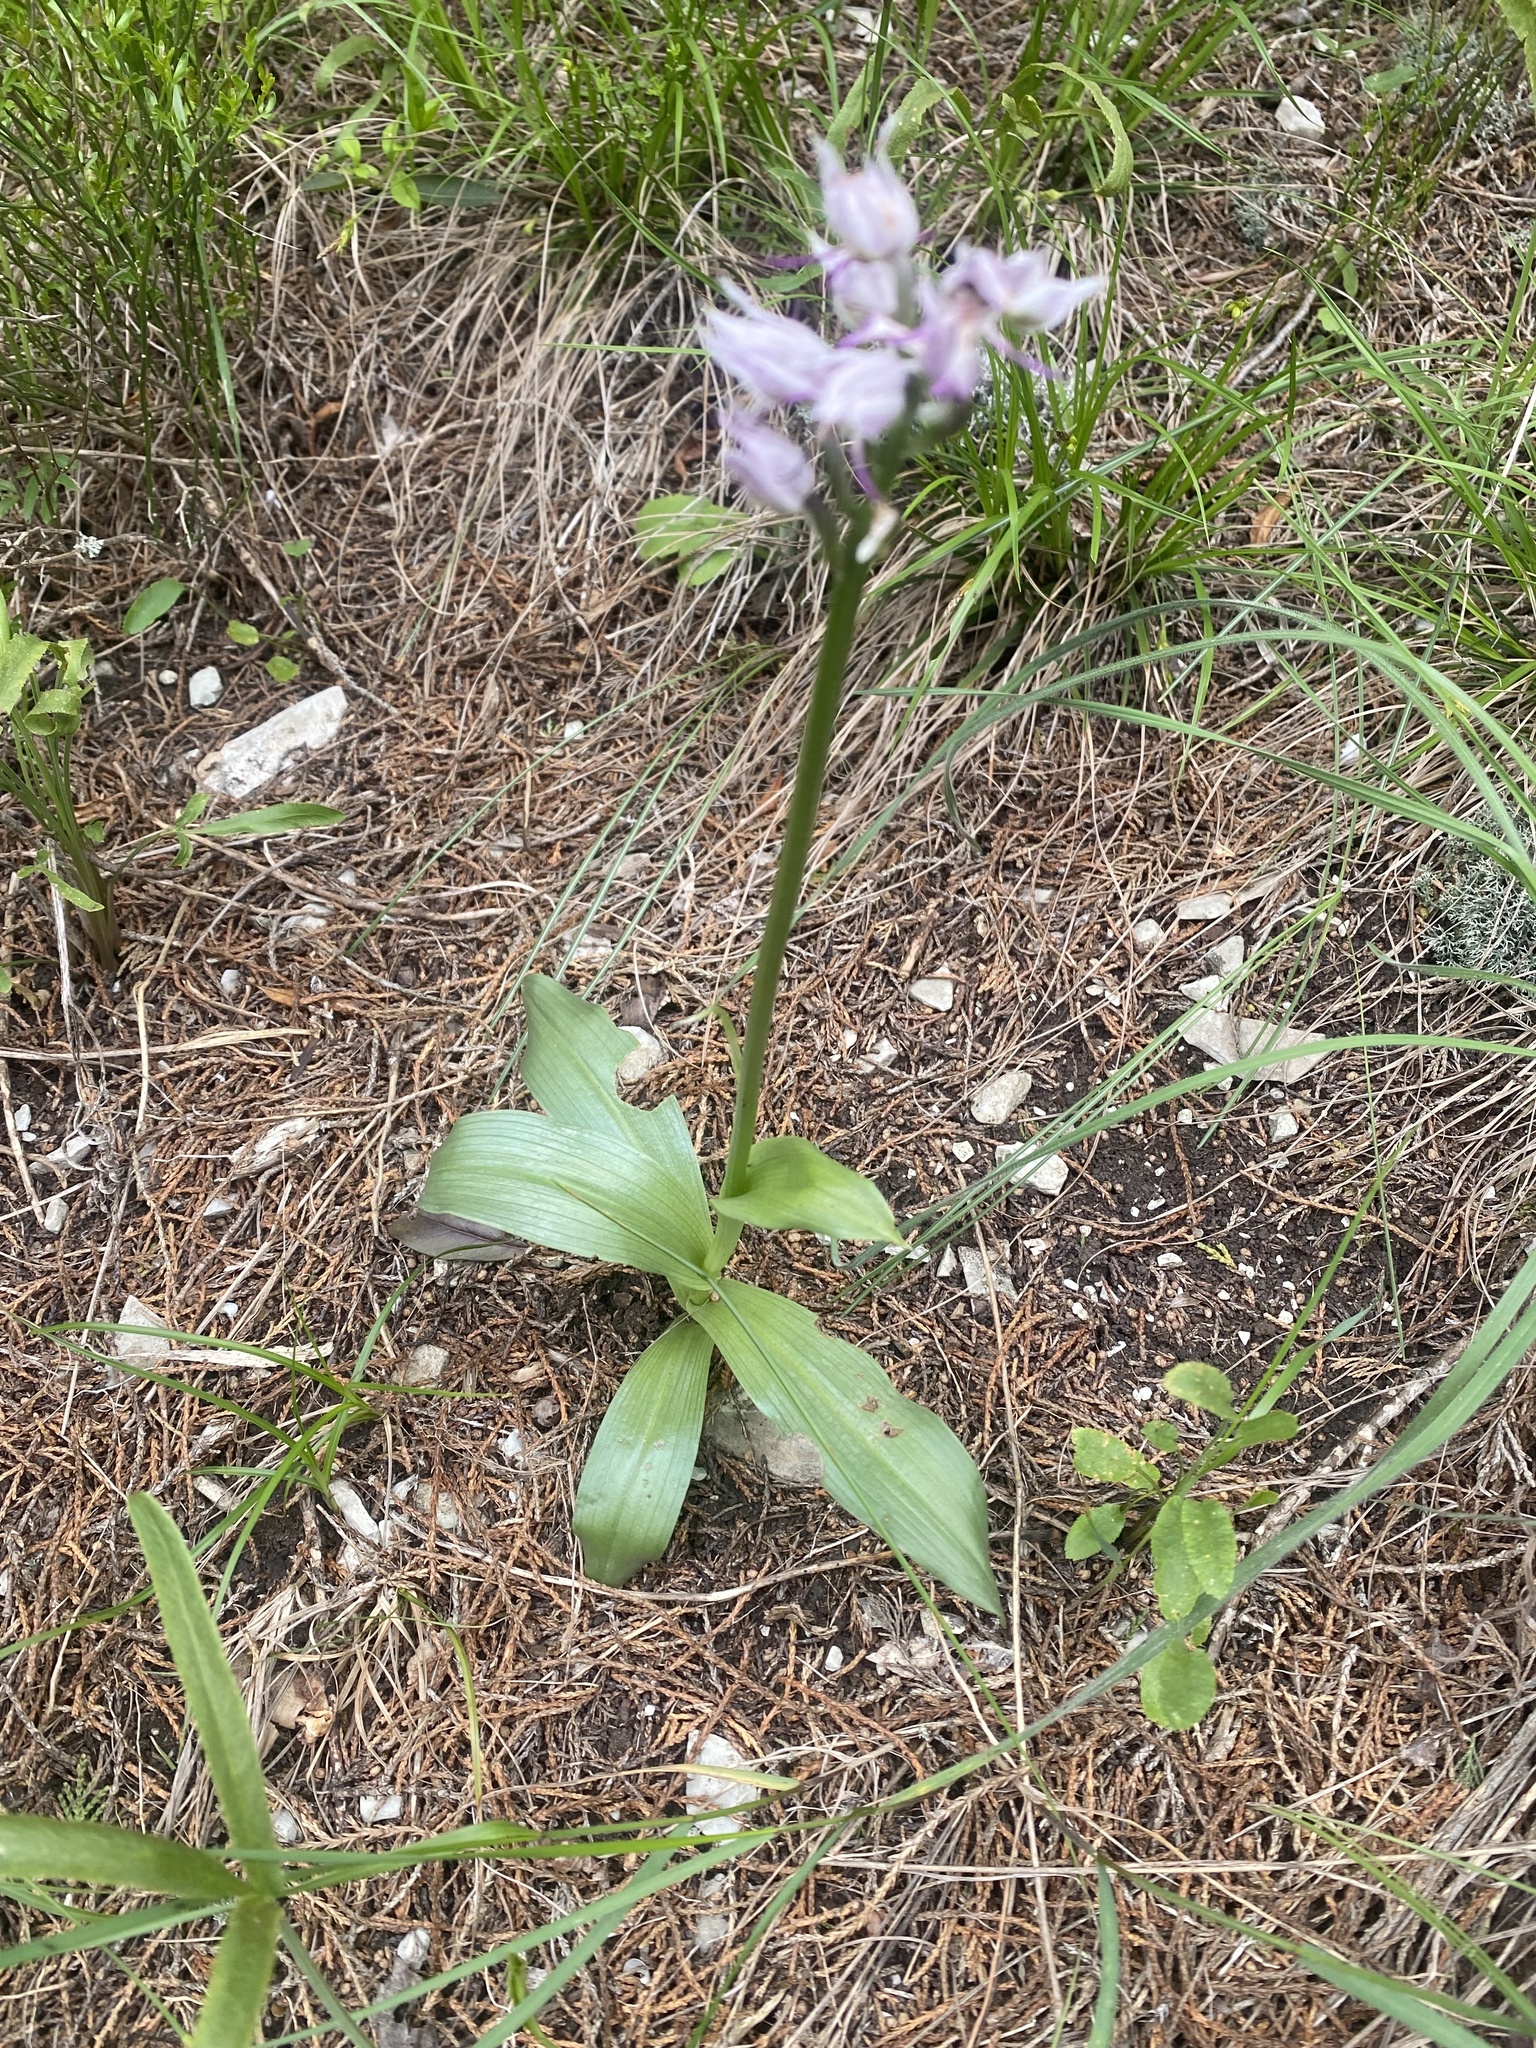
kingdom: Plantae
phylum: Tracheophyta
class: Liliopsida
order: Asparagales
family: Orchidaceae
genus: Orchis
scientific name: Orchis simia
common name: Monkey orchid
